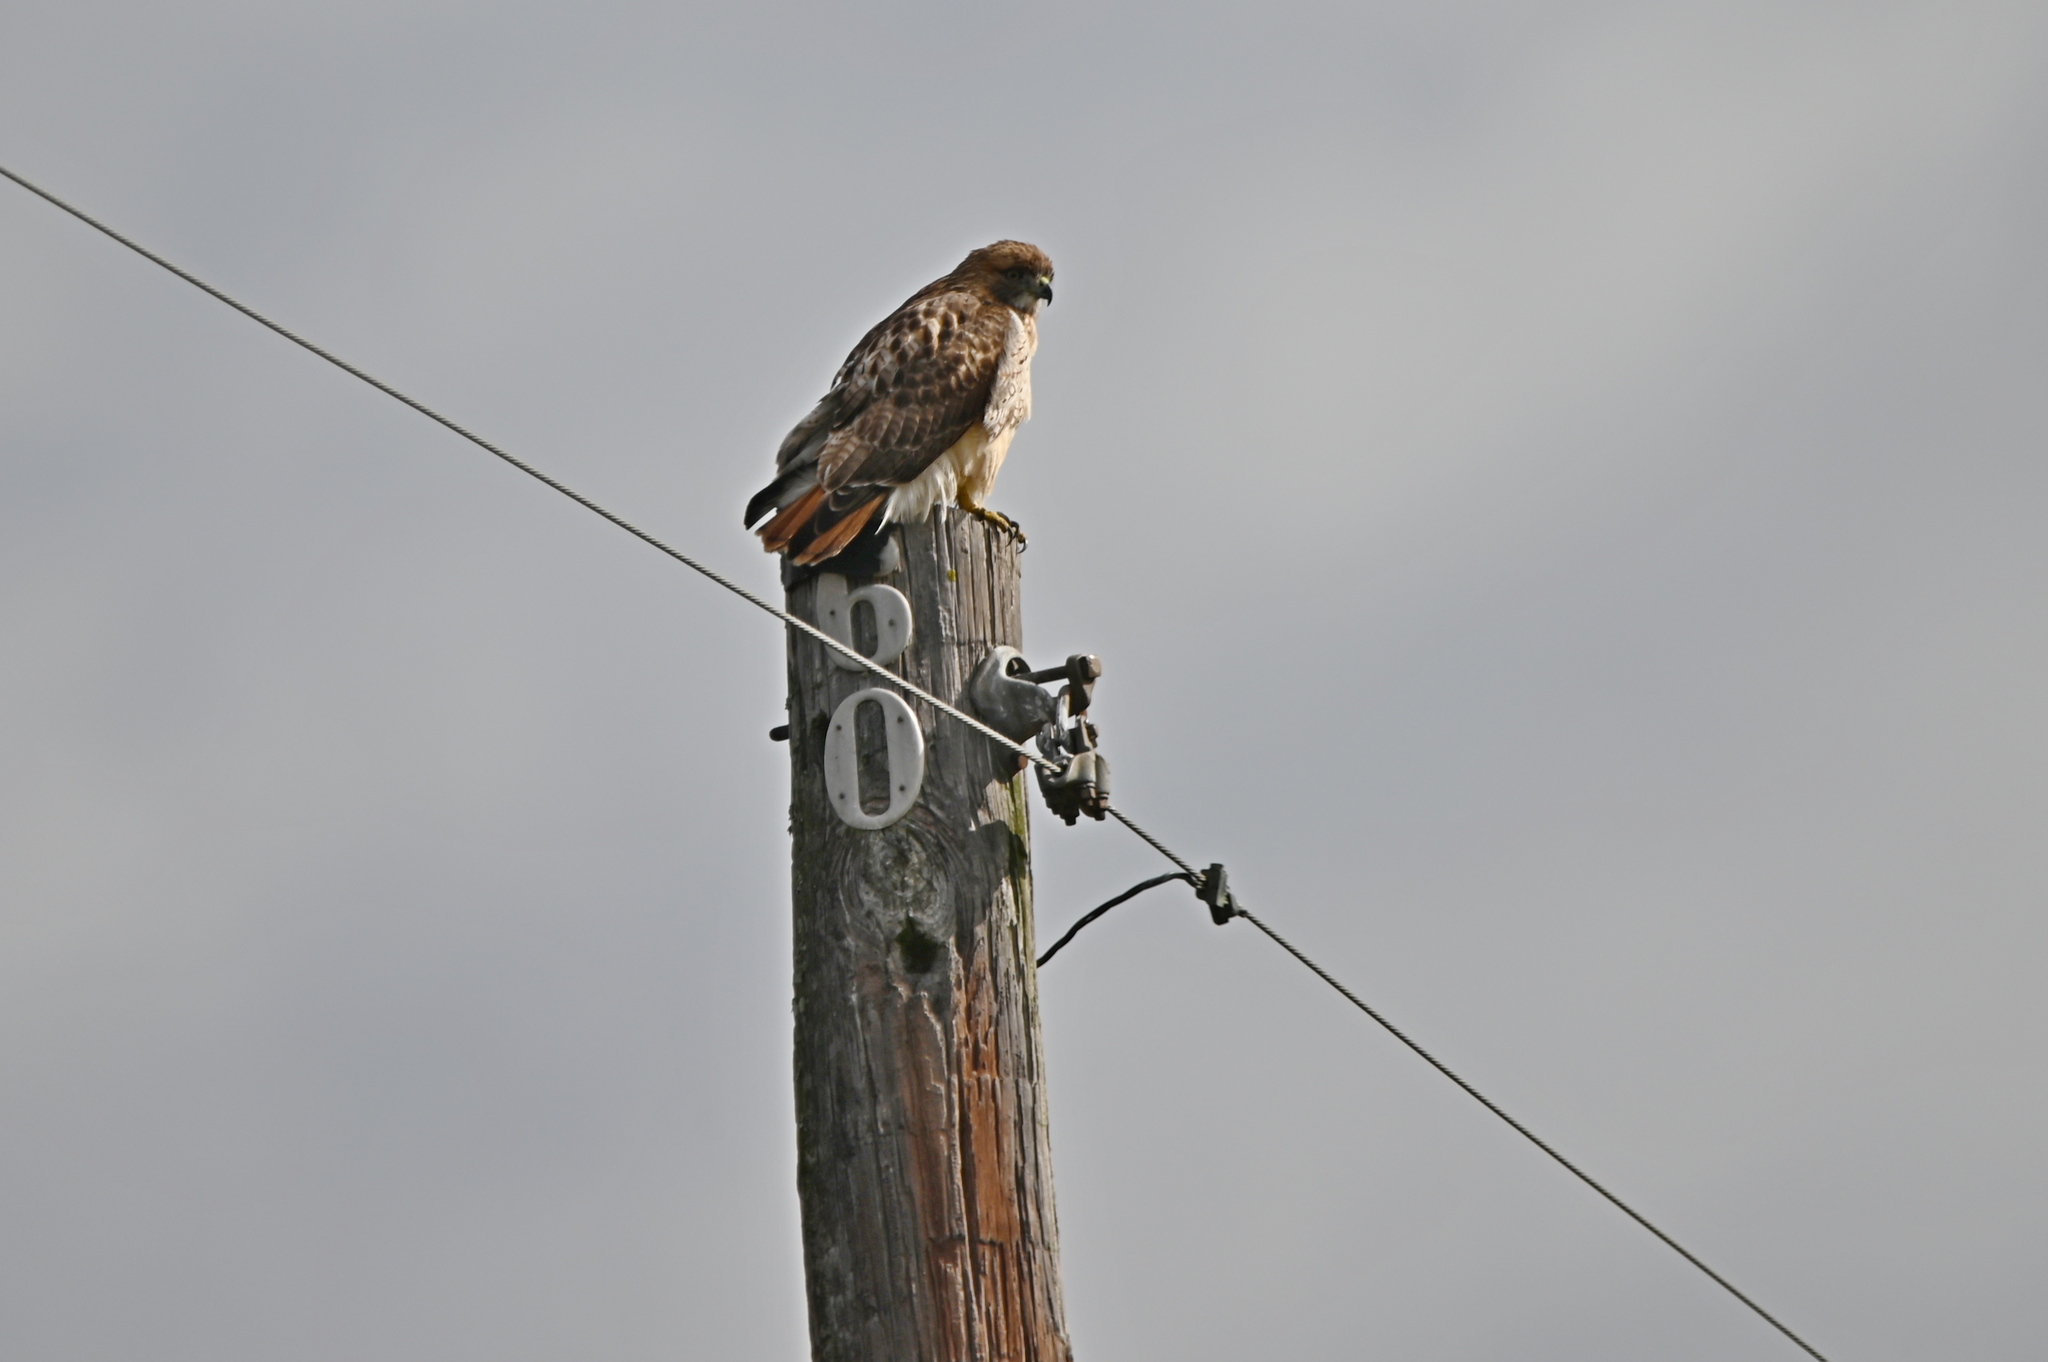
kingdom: Animalia
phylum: Chordata
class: Aves
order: Accipitriformes
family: Accipitridae
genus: Buteo
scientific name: Buteo jamaicensis
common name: Red-tailed hawk
